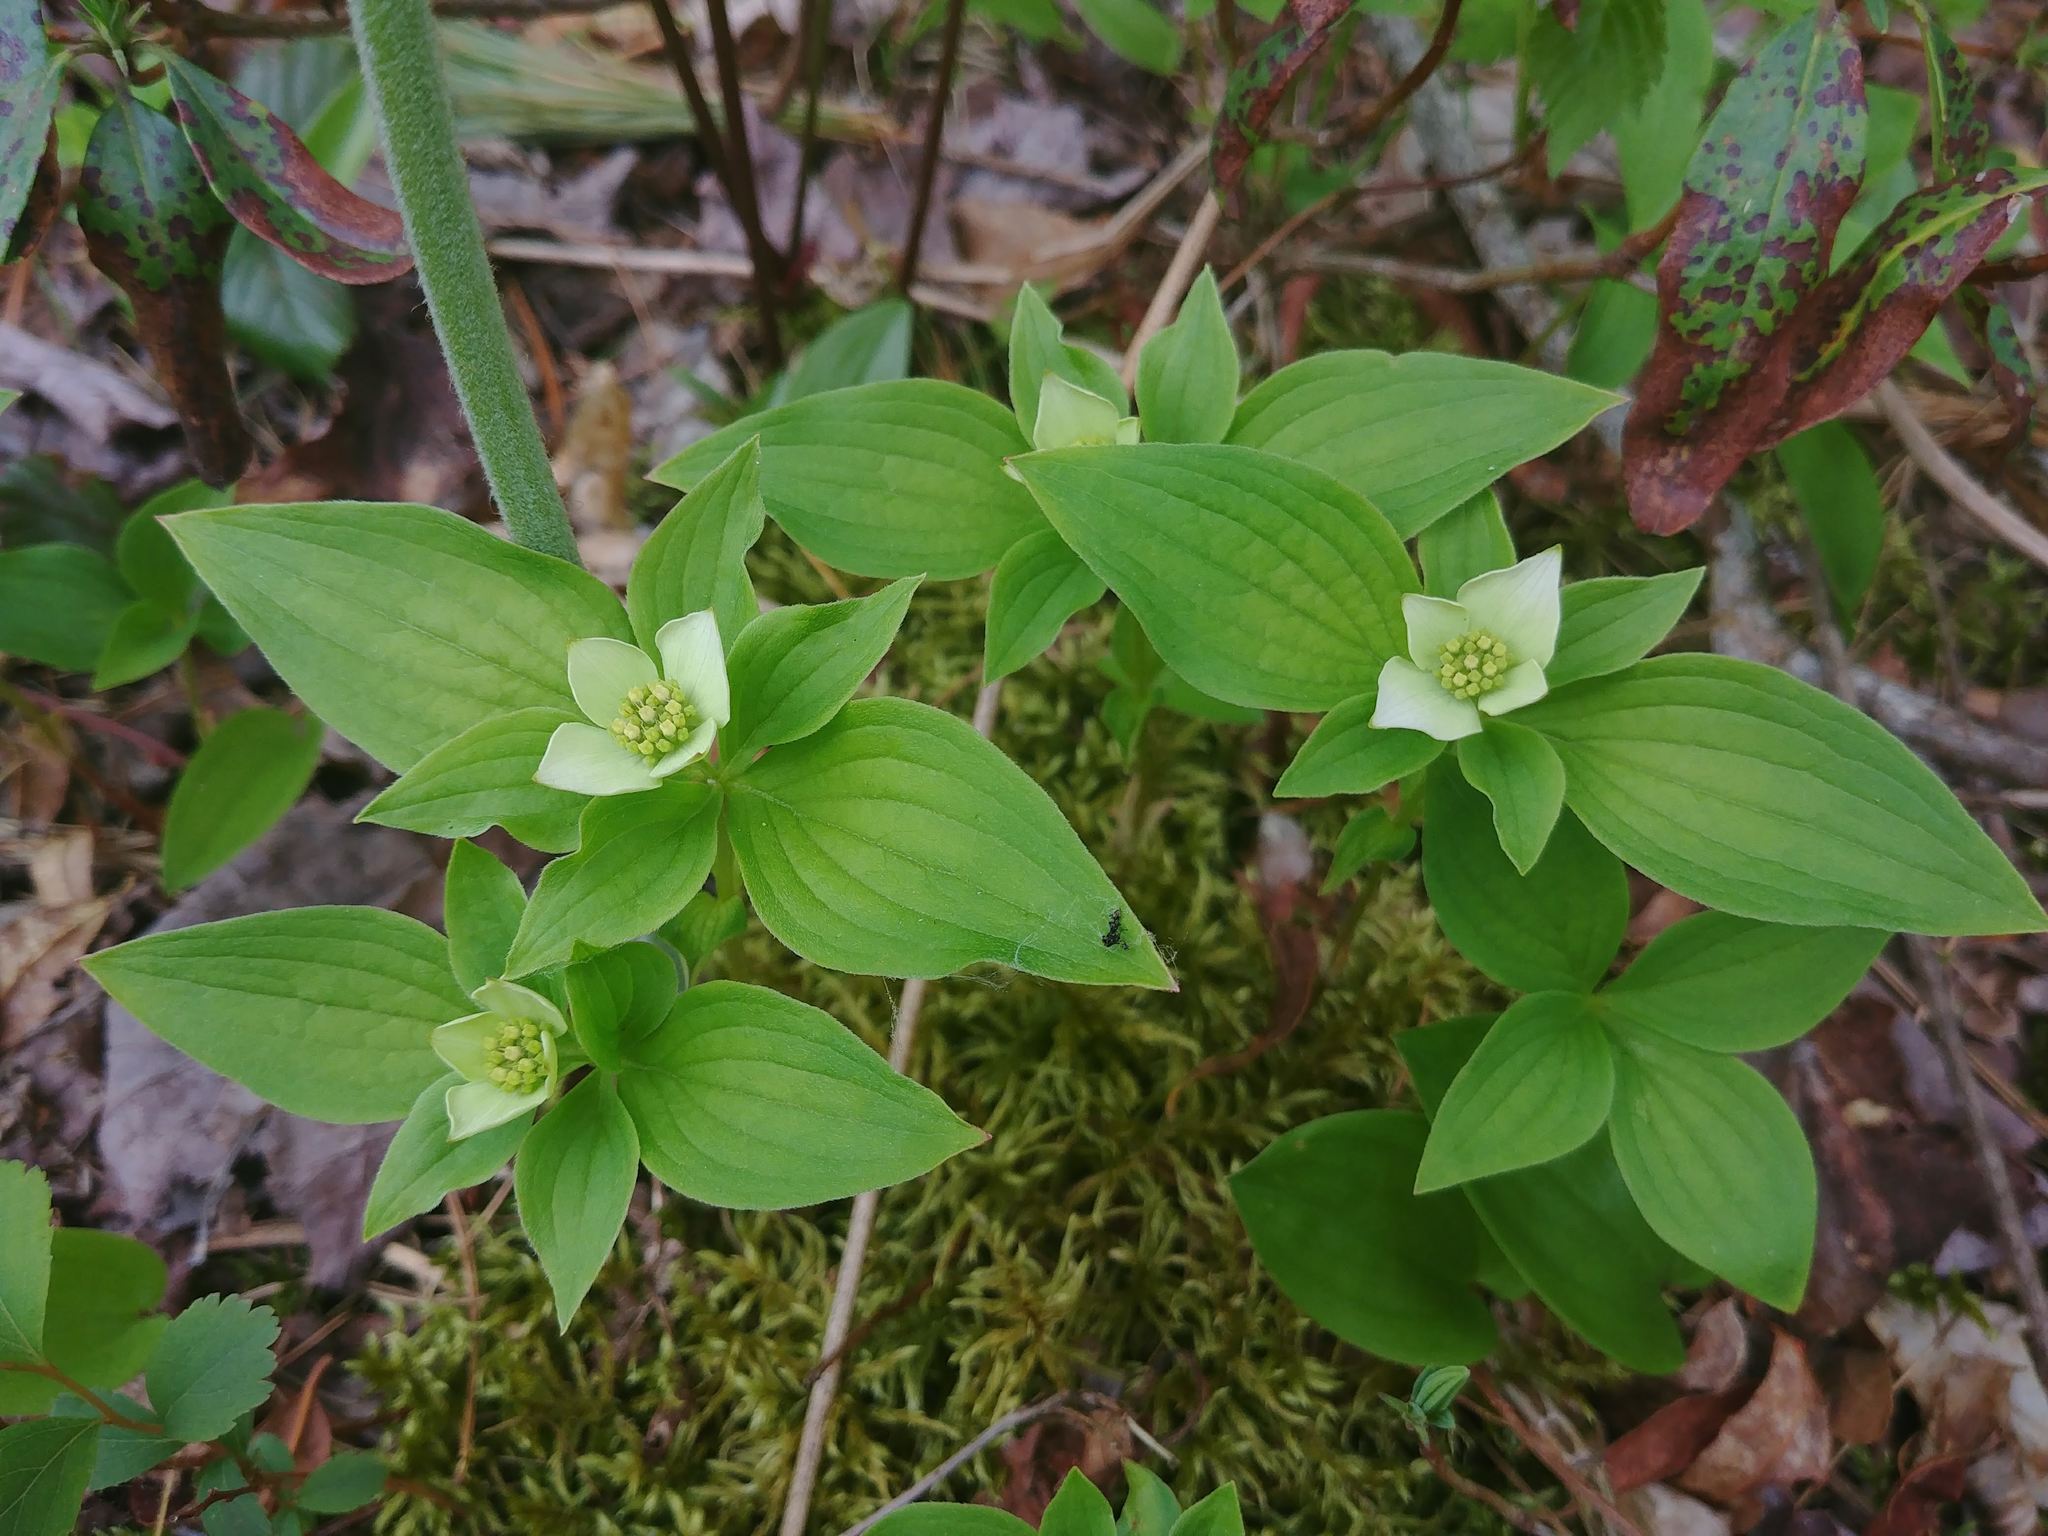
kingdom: Plantae
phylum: Tracheophyta
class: Magnoliopsida
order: Cornales
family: Cornaceae
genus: Cornus
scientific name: Cornus canadensis
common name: Creeping dogwood
